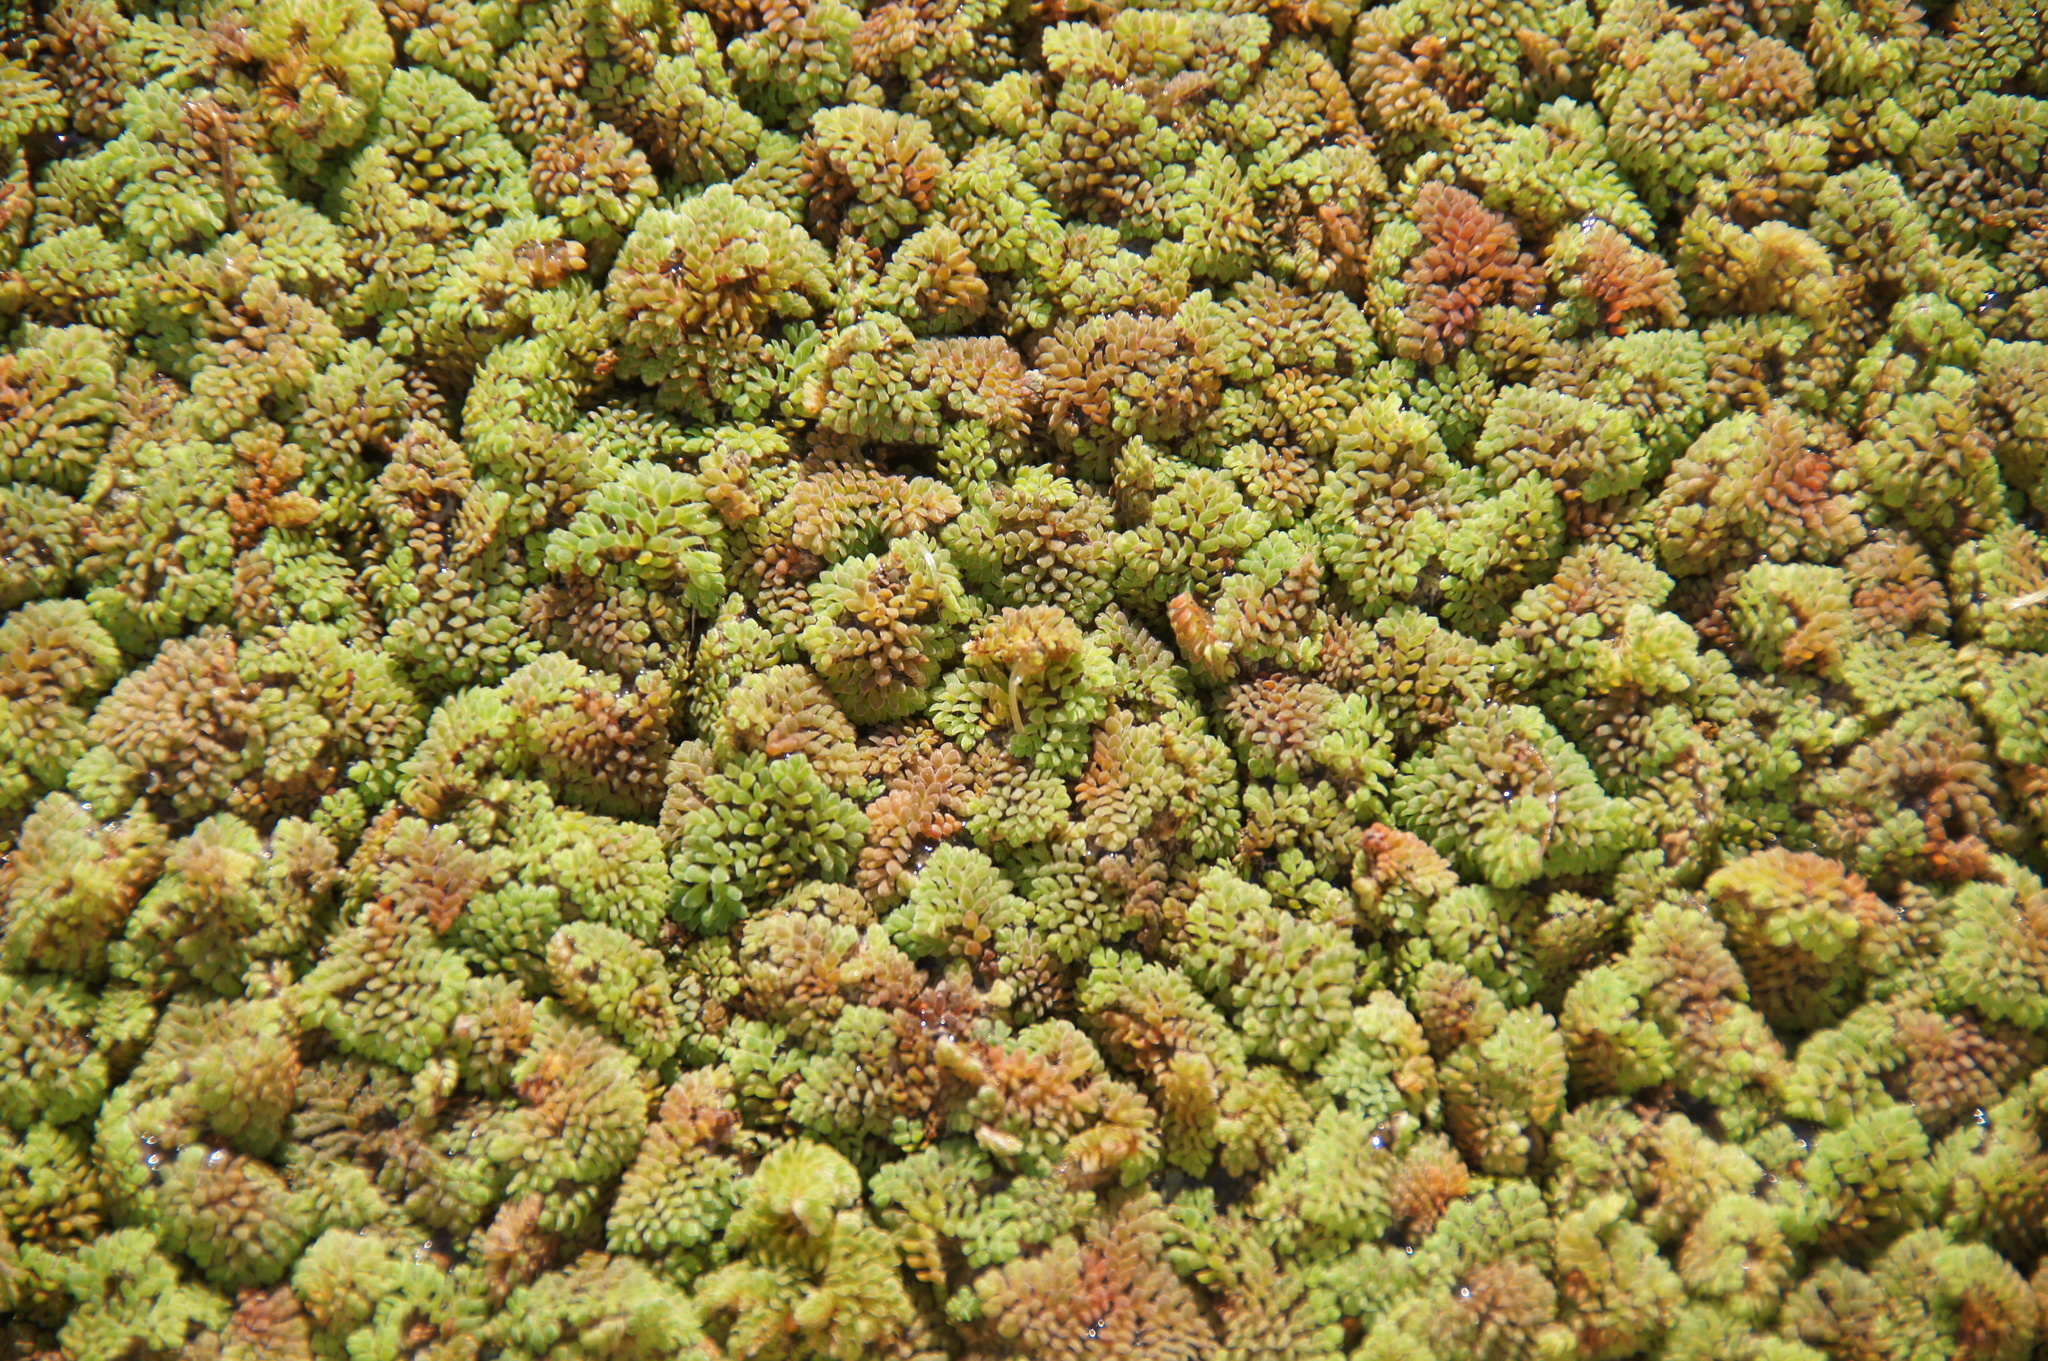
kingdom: Plantae
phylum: Tracheophyta
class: Polypodiopsida
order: Salviniales
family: Salviniaceae
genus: Azolla
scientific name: Azolla pinnata
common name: Ferny azolla
